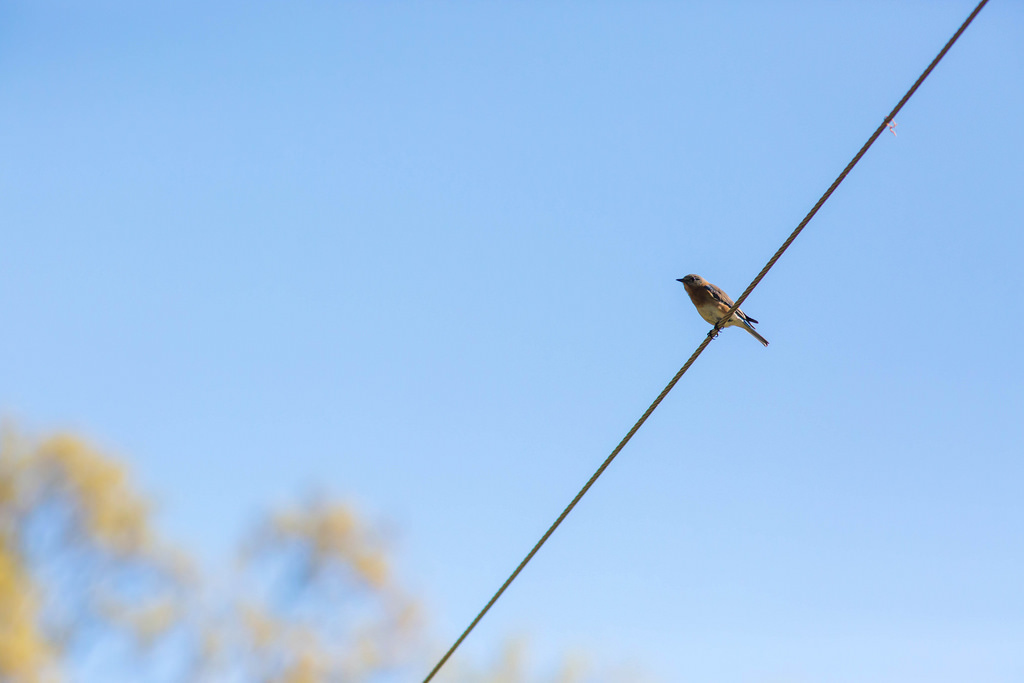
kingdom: Animalia
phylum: Chordata
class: Aves
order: Passeriformes
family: Turdidae
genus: Sialia
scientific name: Sialia sialis
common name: Eastern bluebird
